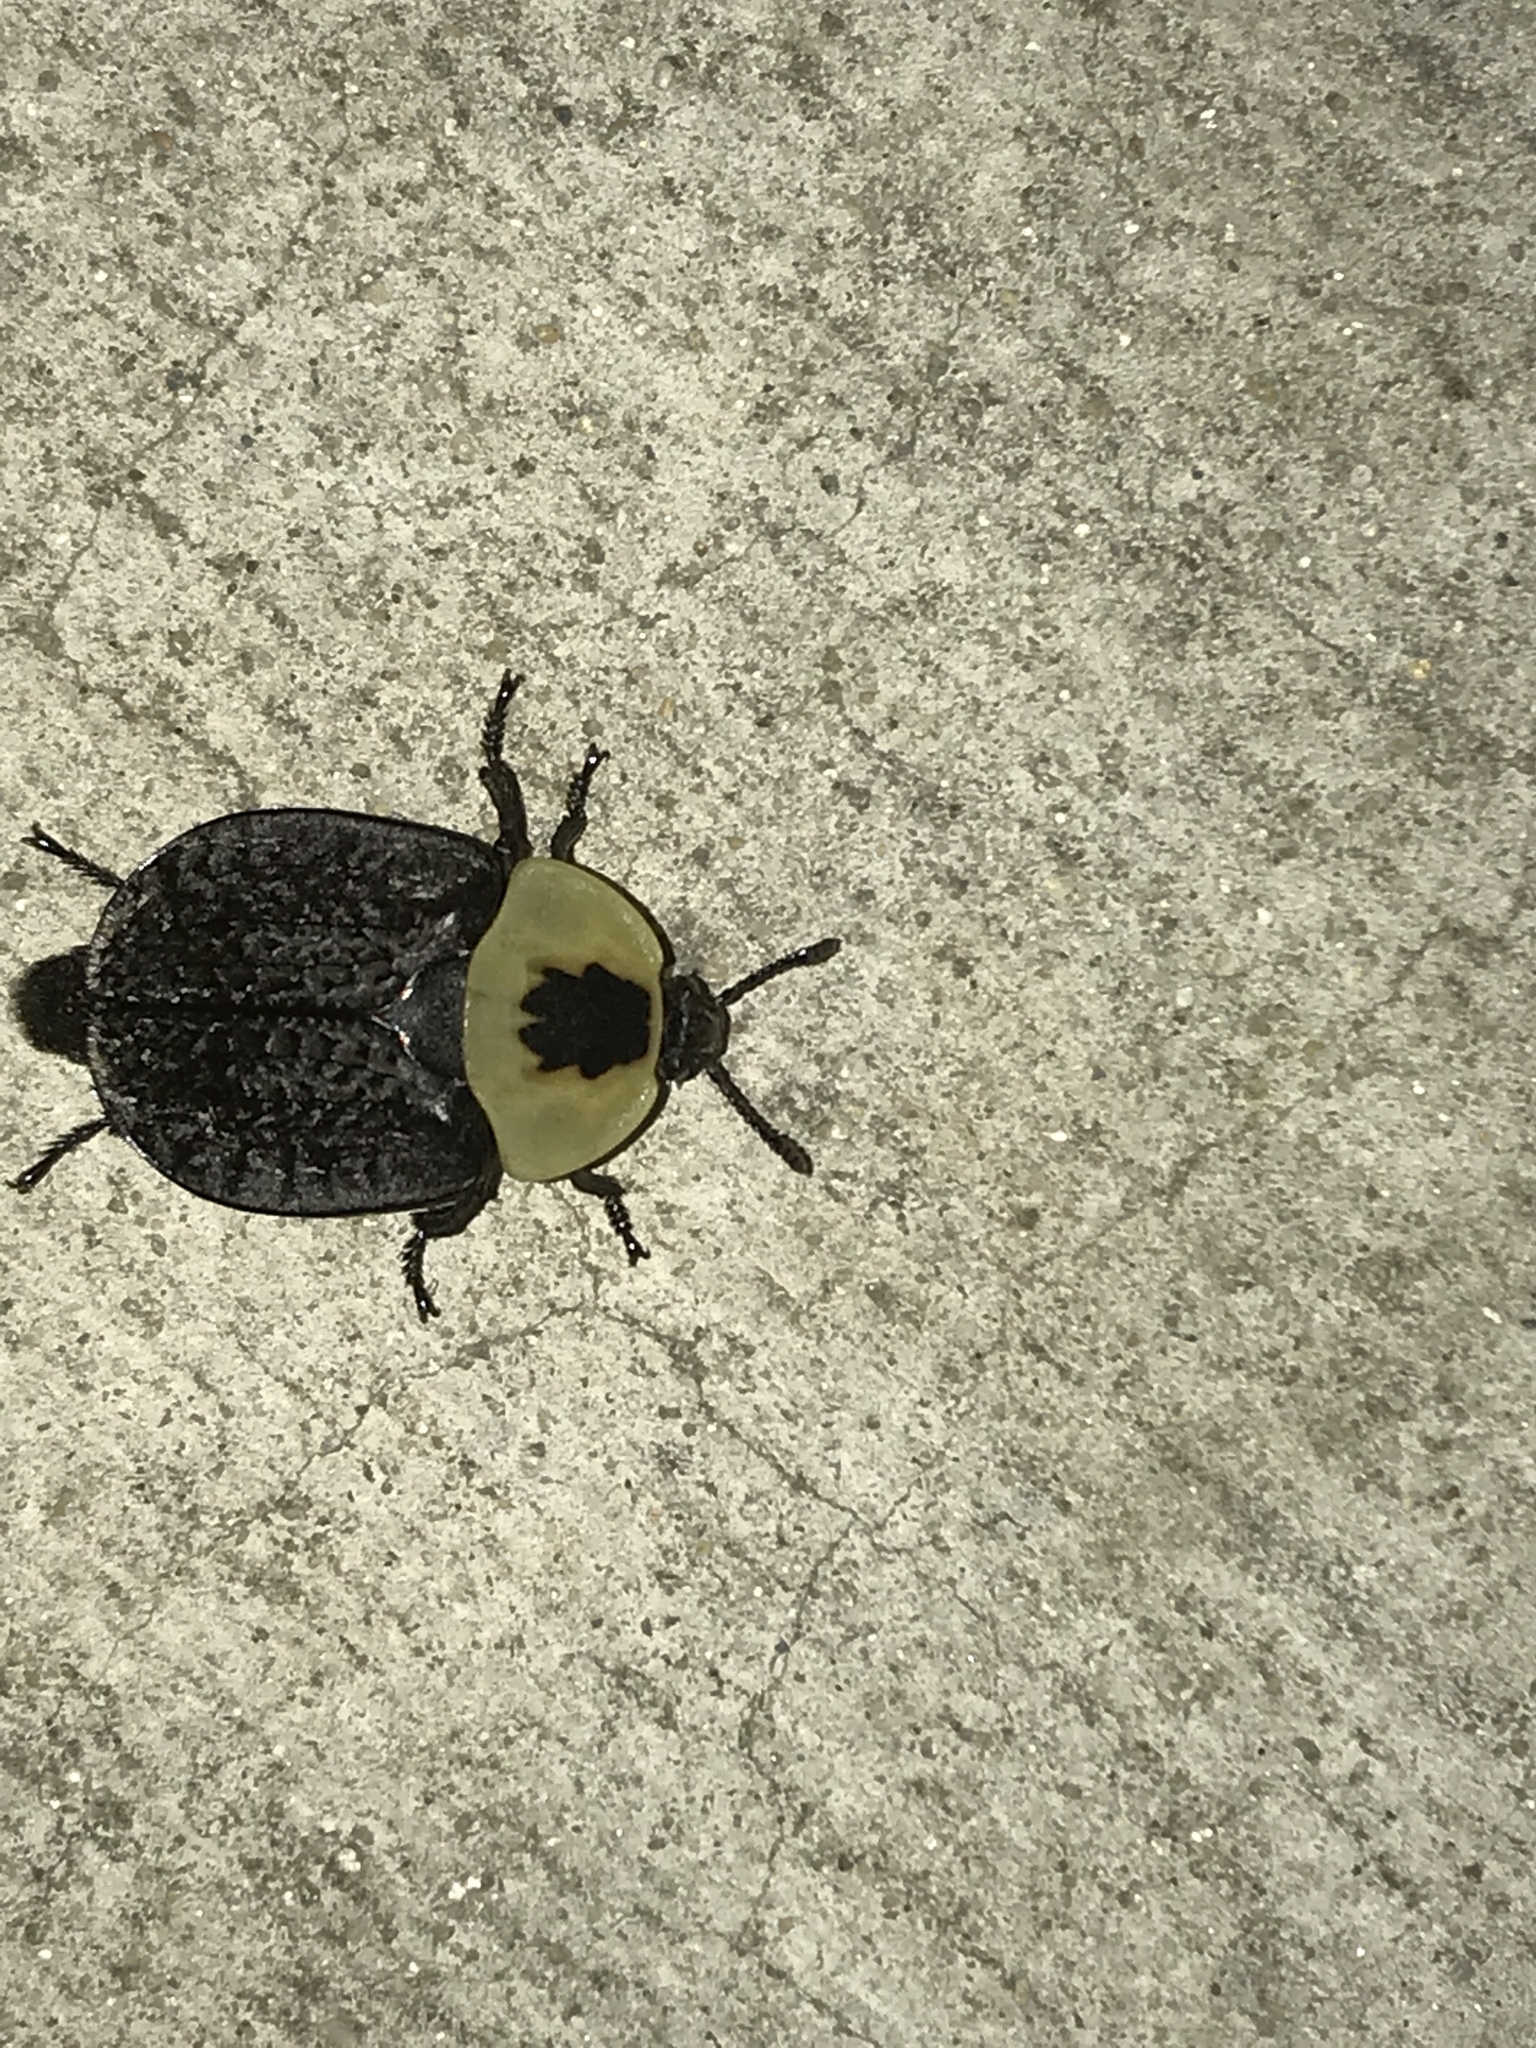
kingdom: Animalia
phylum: Arthropoda
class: Insecta
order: Coleoptera
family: Staphylinidae
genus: Necrophila
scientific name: Necrophila americana
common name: American carrion beetle
